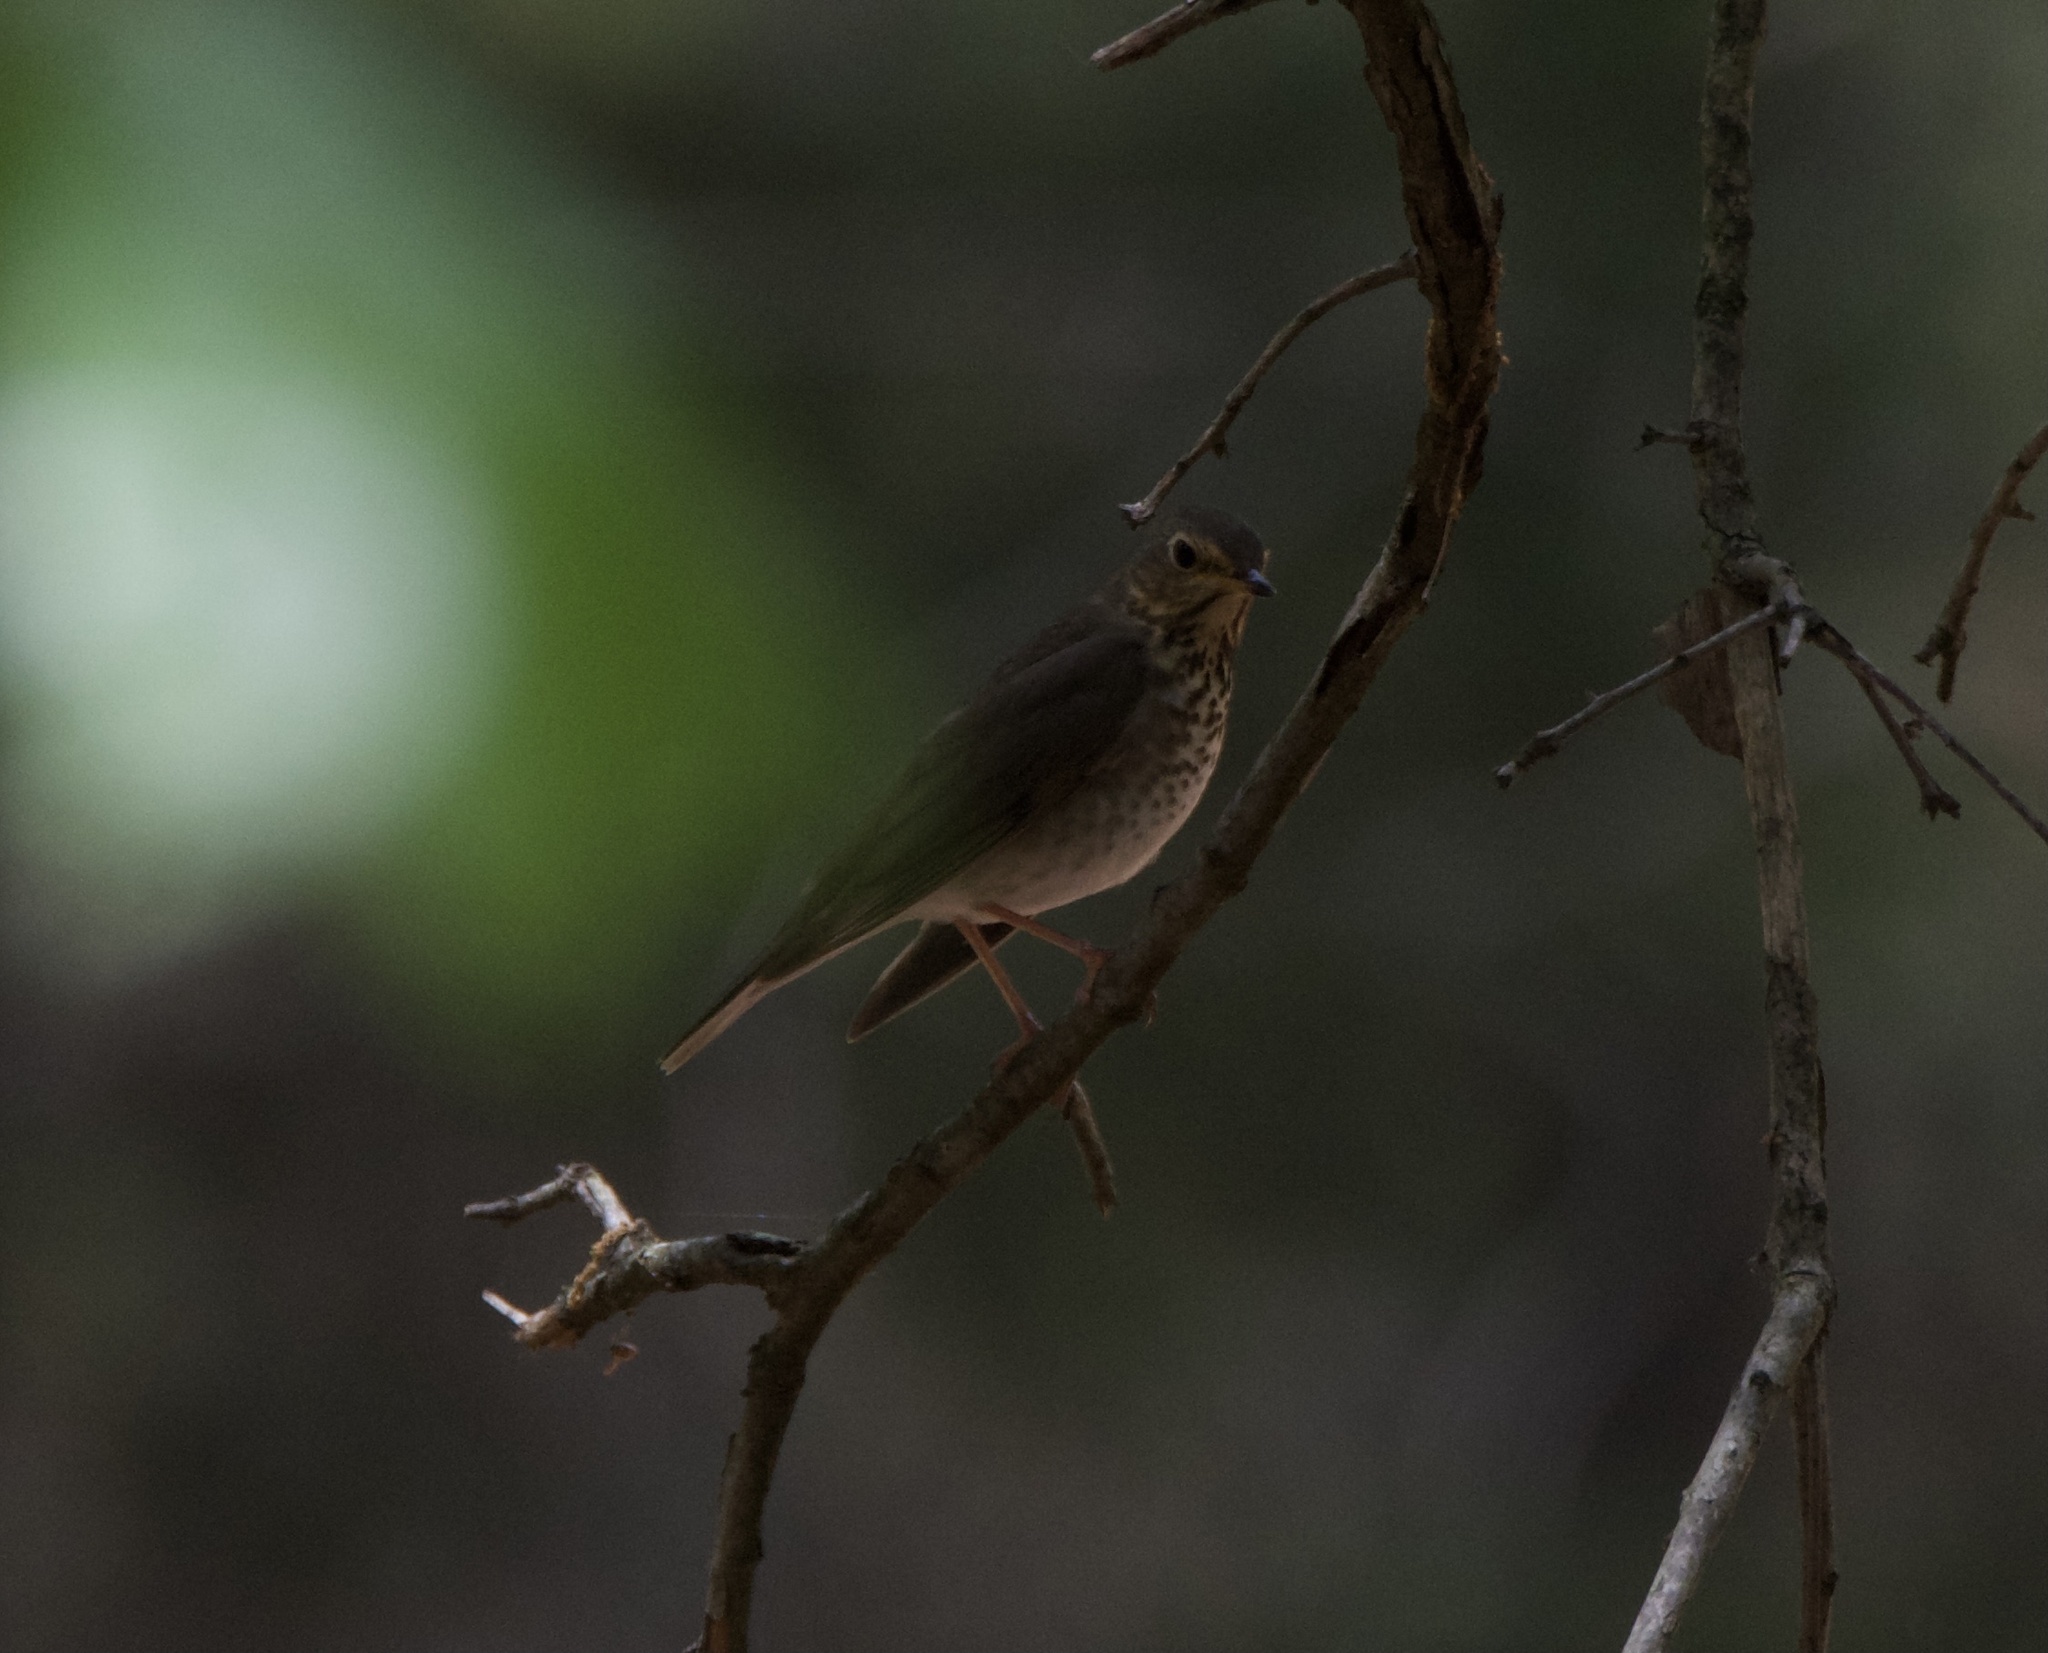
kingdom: Animalia
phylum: Chordata
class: Aves
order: Passeriformes
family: Turdidae
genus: Catharus
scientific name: Catharus ustulatus
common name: Swainson's thrush
